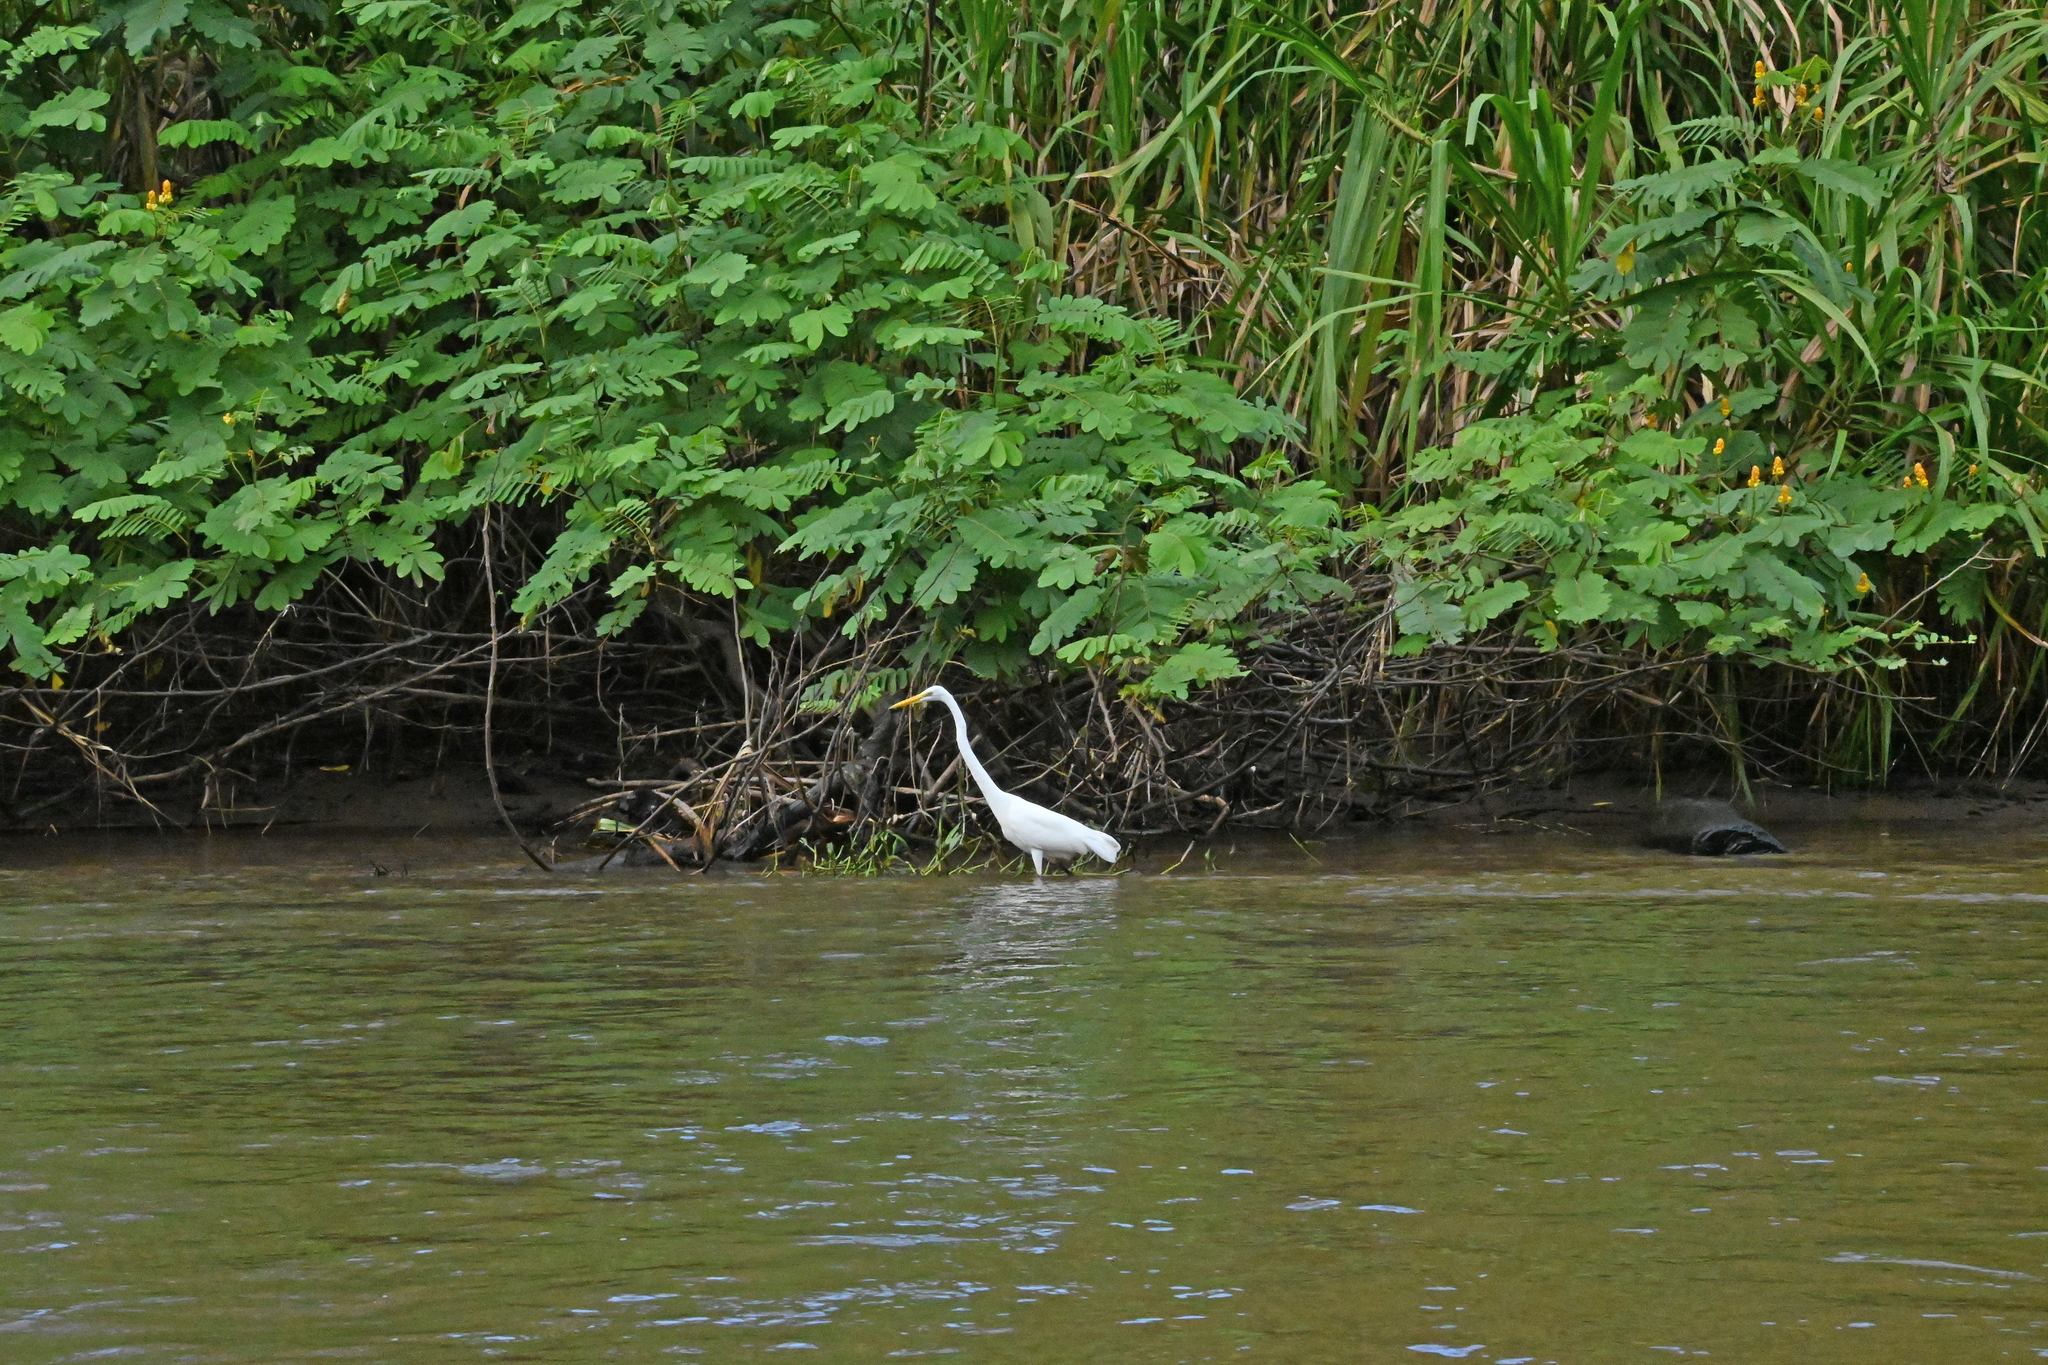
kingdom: Animalia
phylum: Chordata
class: Aves
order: Pelecaniformes
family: Ardeidae
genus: Ardea
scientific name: Ardea alba
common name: Great egret
